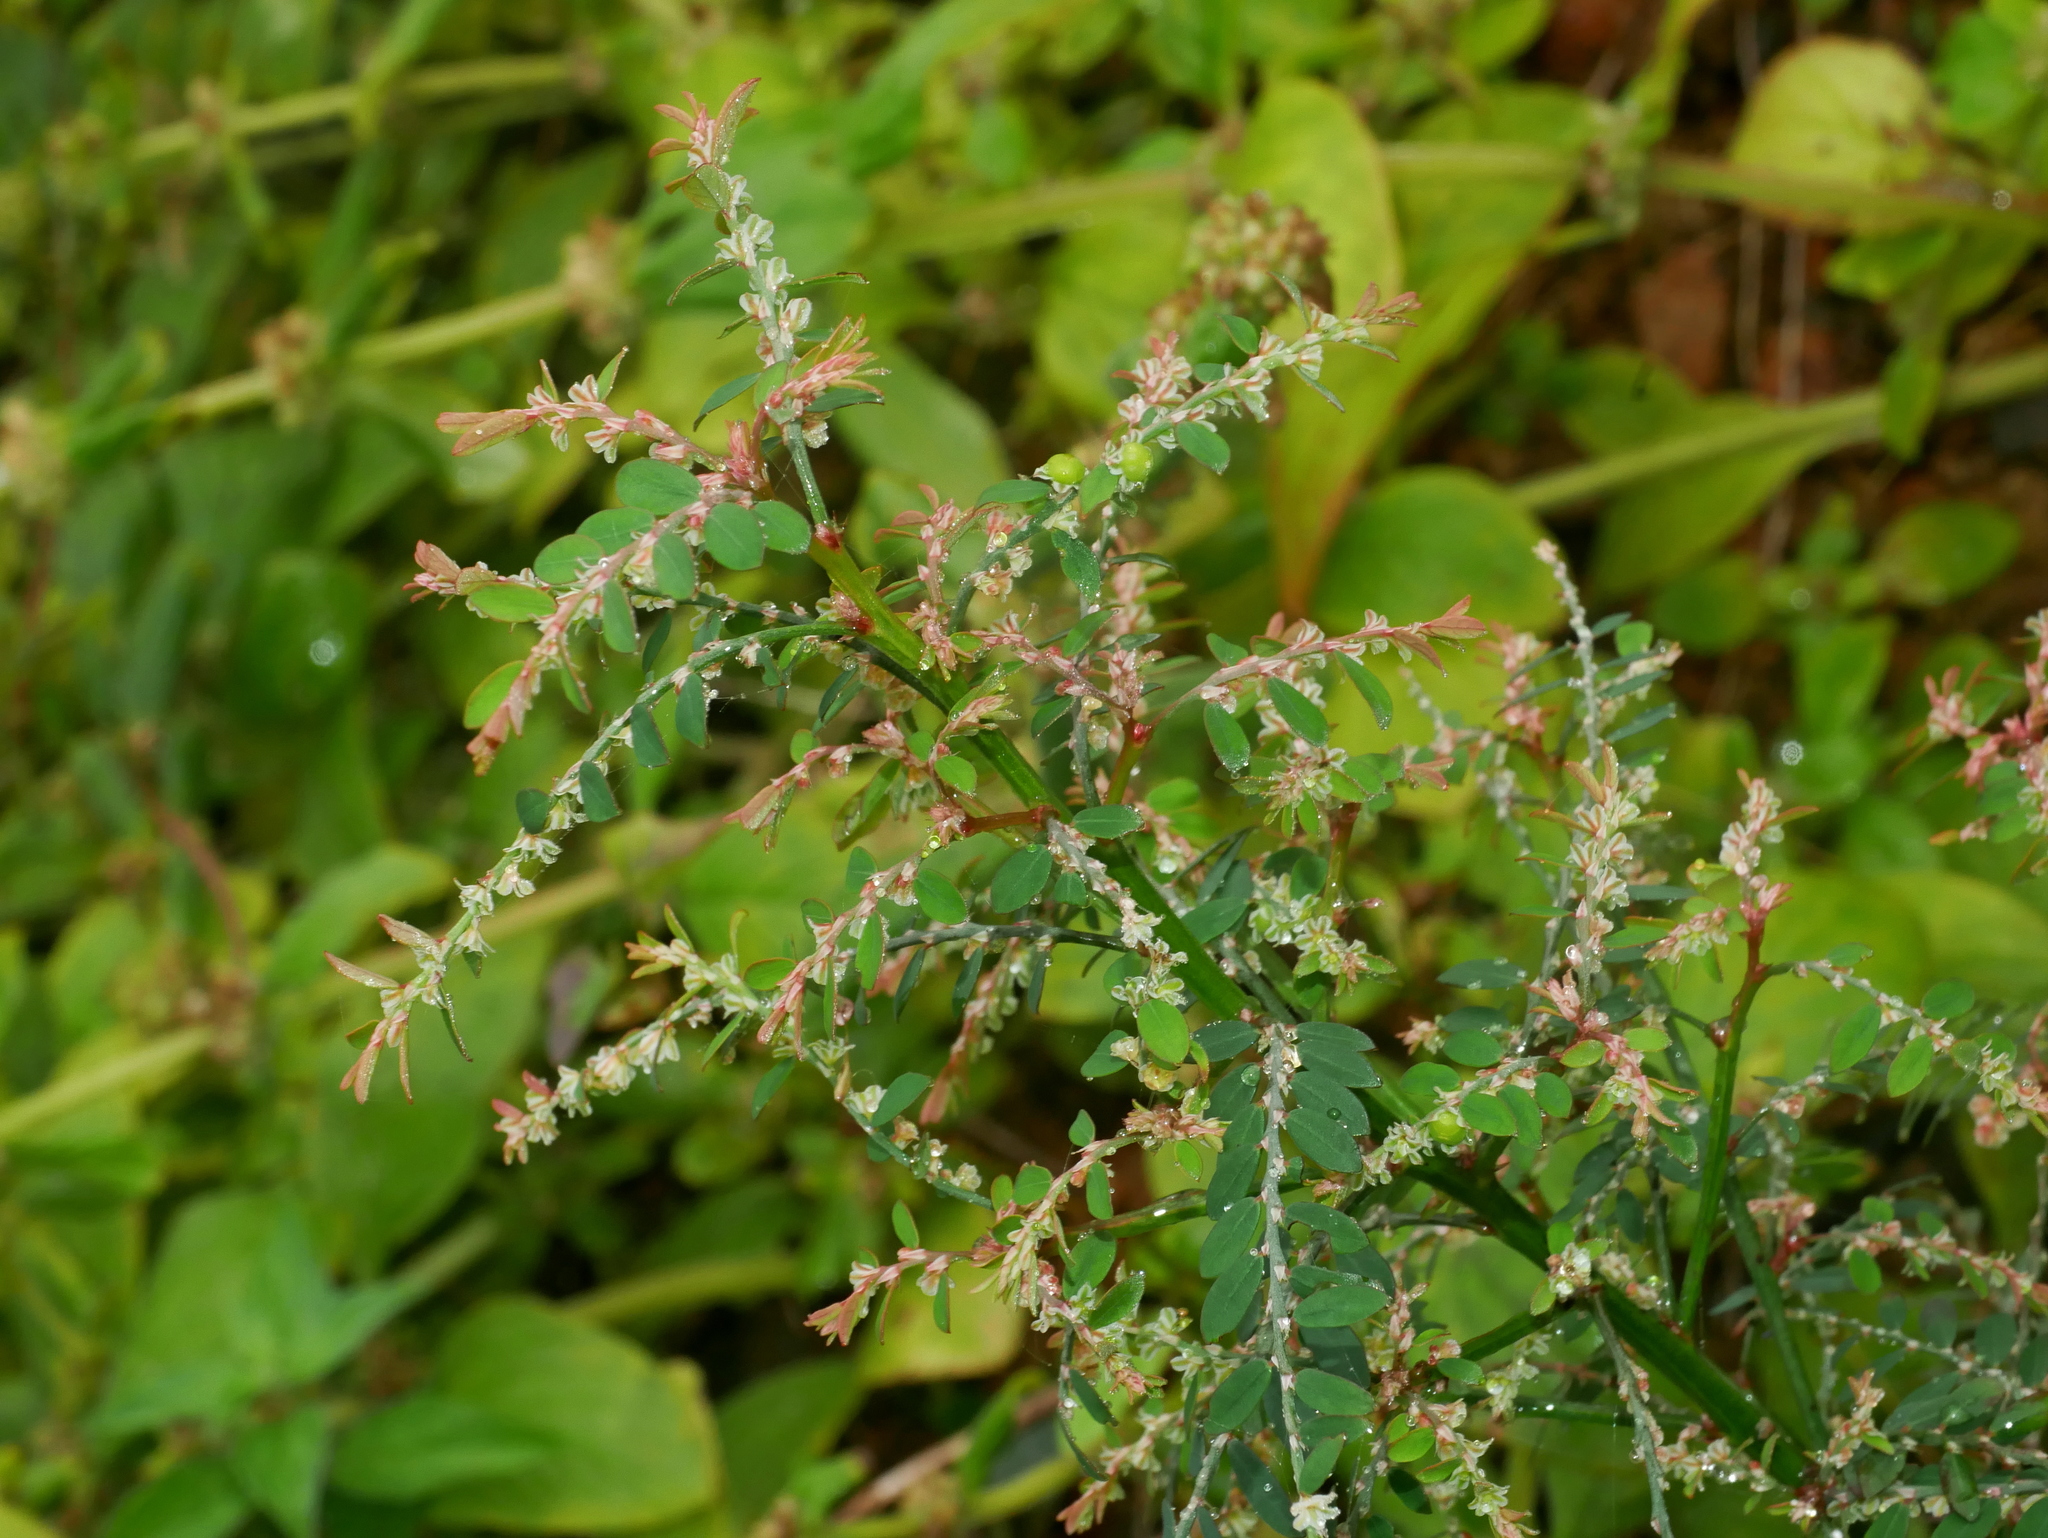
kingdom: Plantae
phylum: Tracheophyta
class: Magnoliopsida
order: Malpighiales
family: Phyllanthaceae
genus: Phyllanthus
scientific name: Phyllanthus debilis
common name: Niruri
